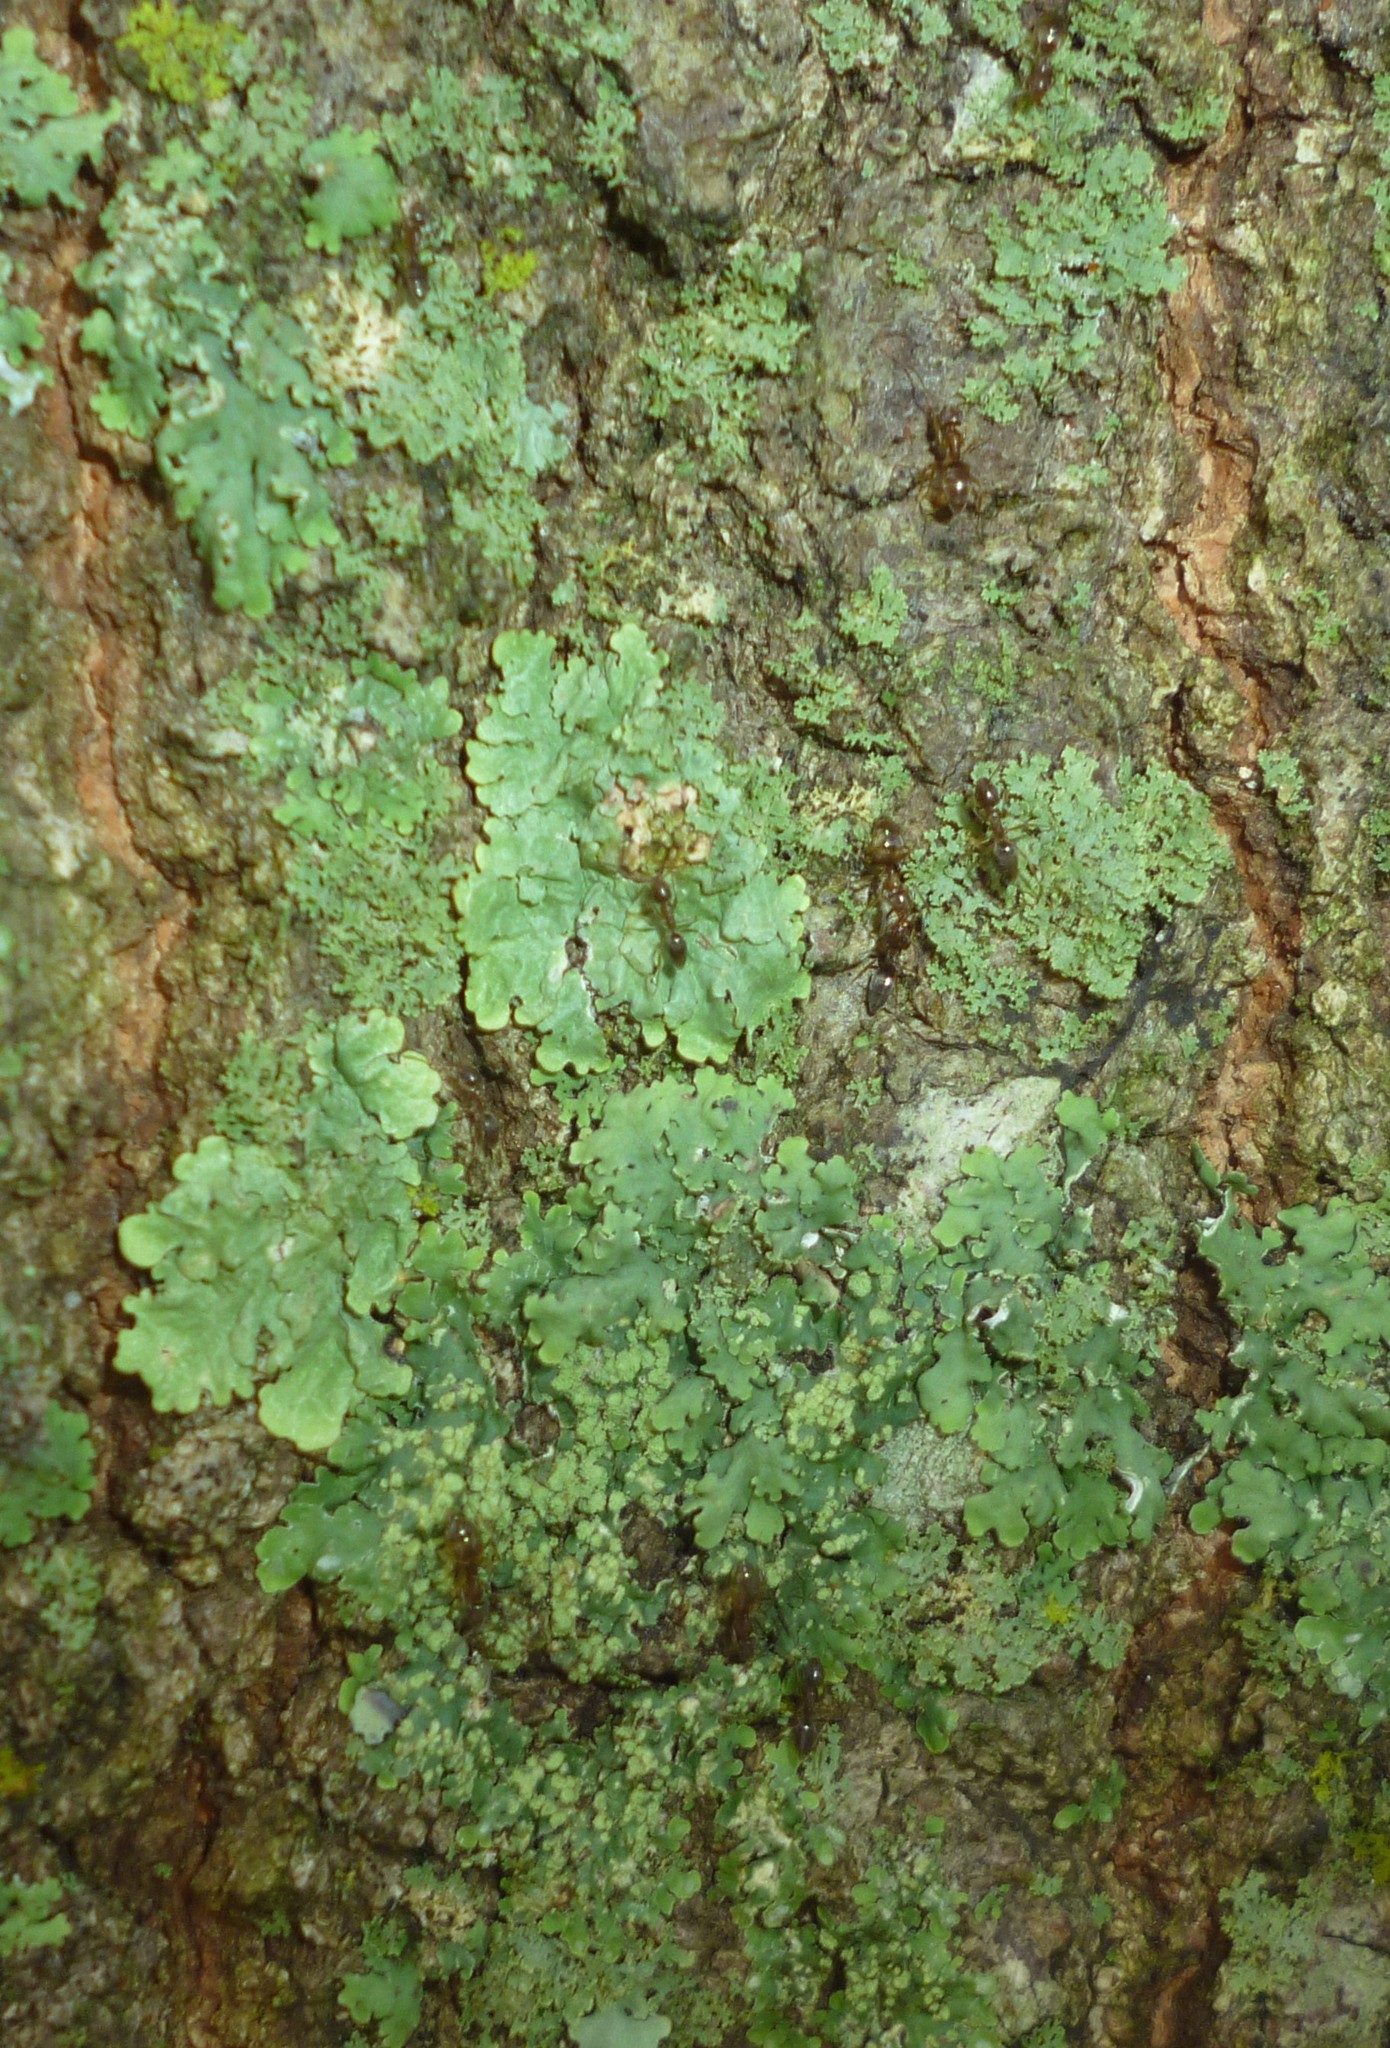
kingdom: Animalia
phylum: Arthropoda
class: Insecta
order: Hymenoptera
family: Formicidae
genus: Linepithema
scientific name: Linepithema humile
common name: Argentine ant
